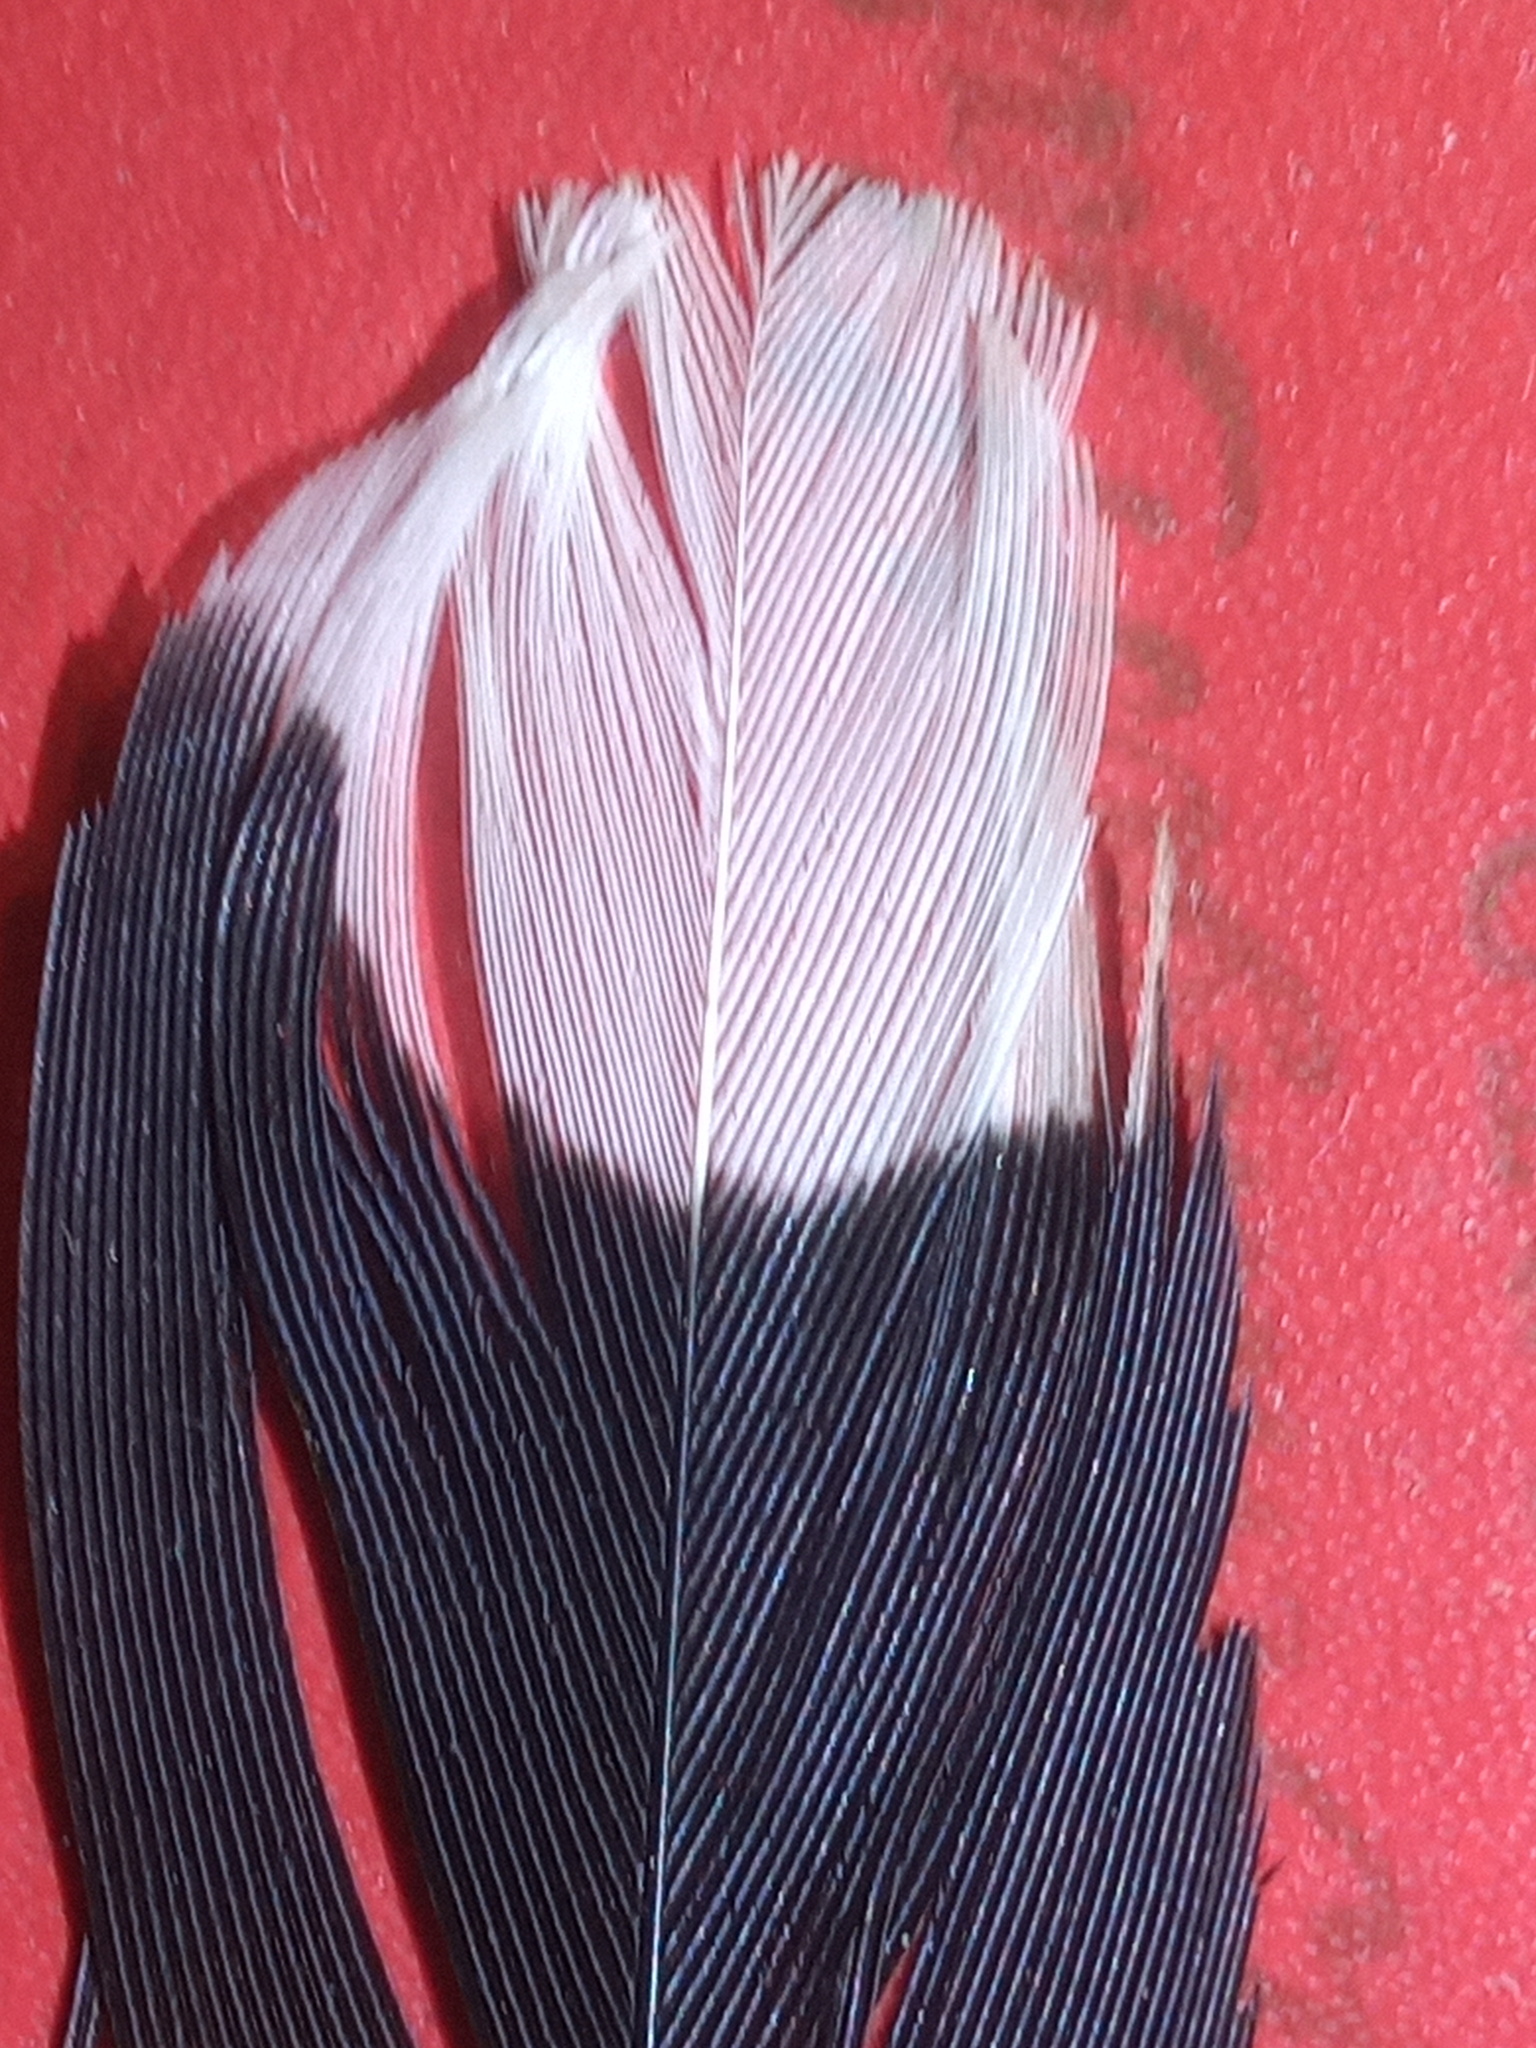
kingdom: Animalia
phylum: Chordata
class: Aves
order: Cuculiformes
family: Cuculidae
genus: Piaya
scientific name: Piaya cayana
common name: Squirrel cuckoo
